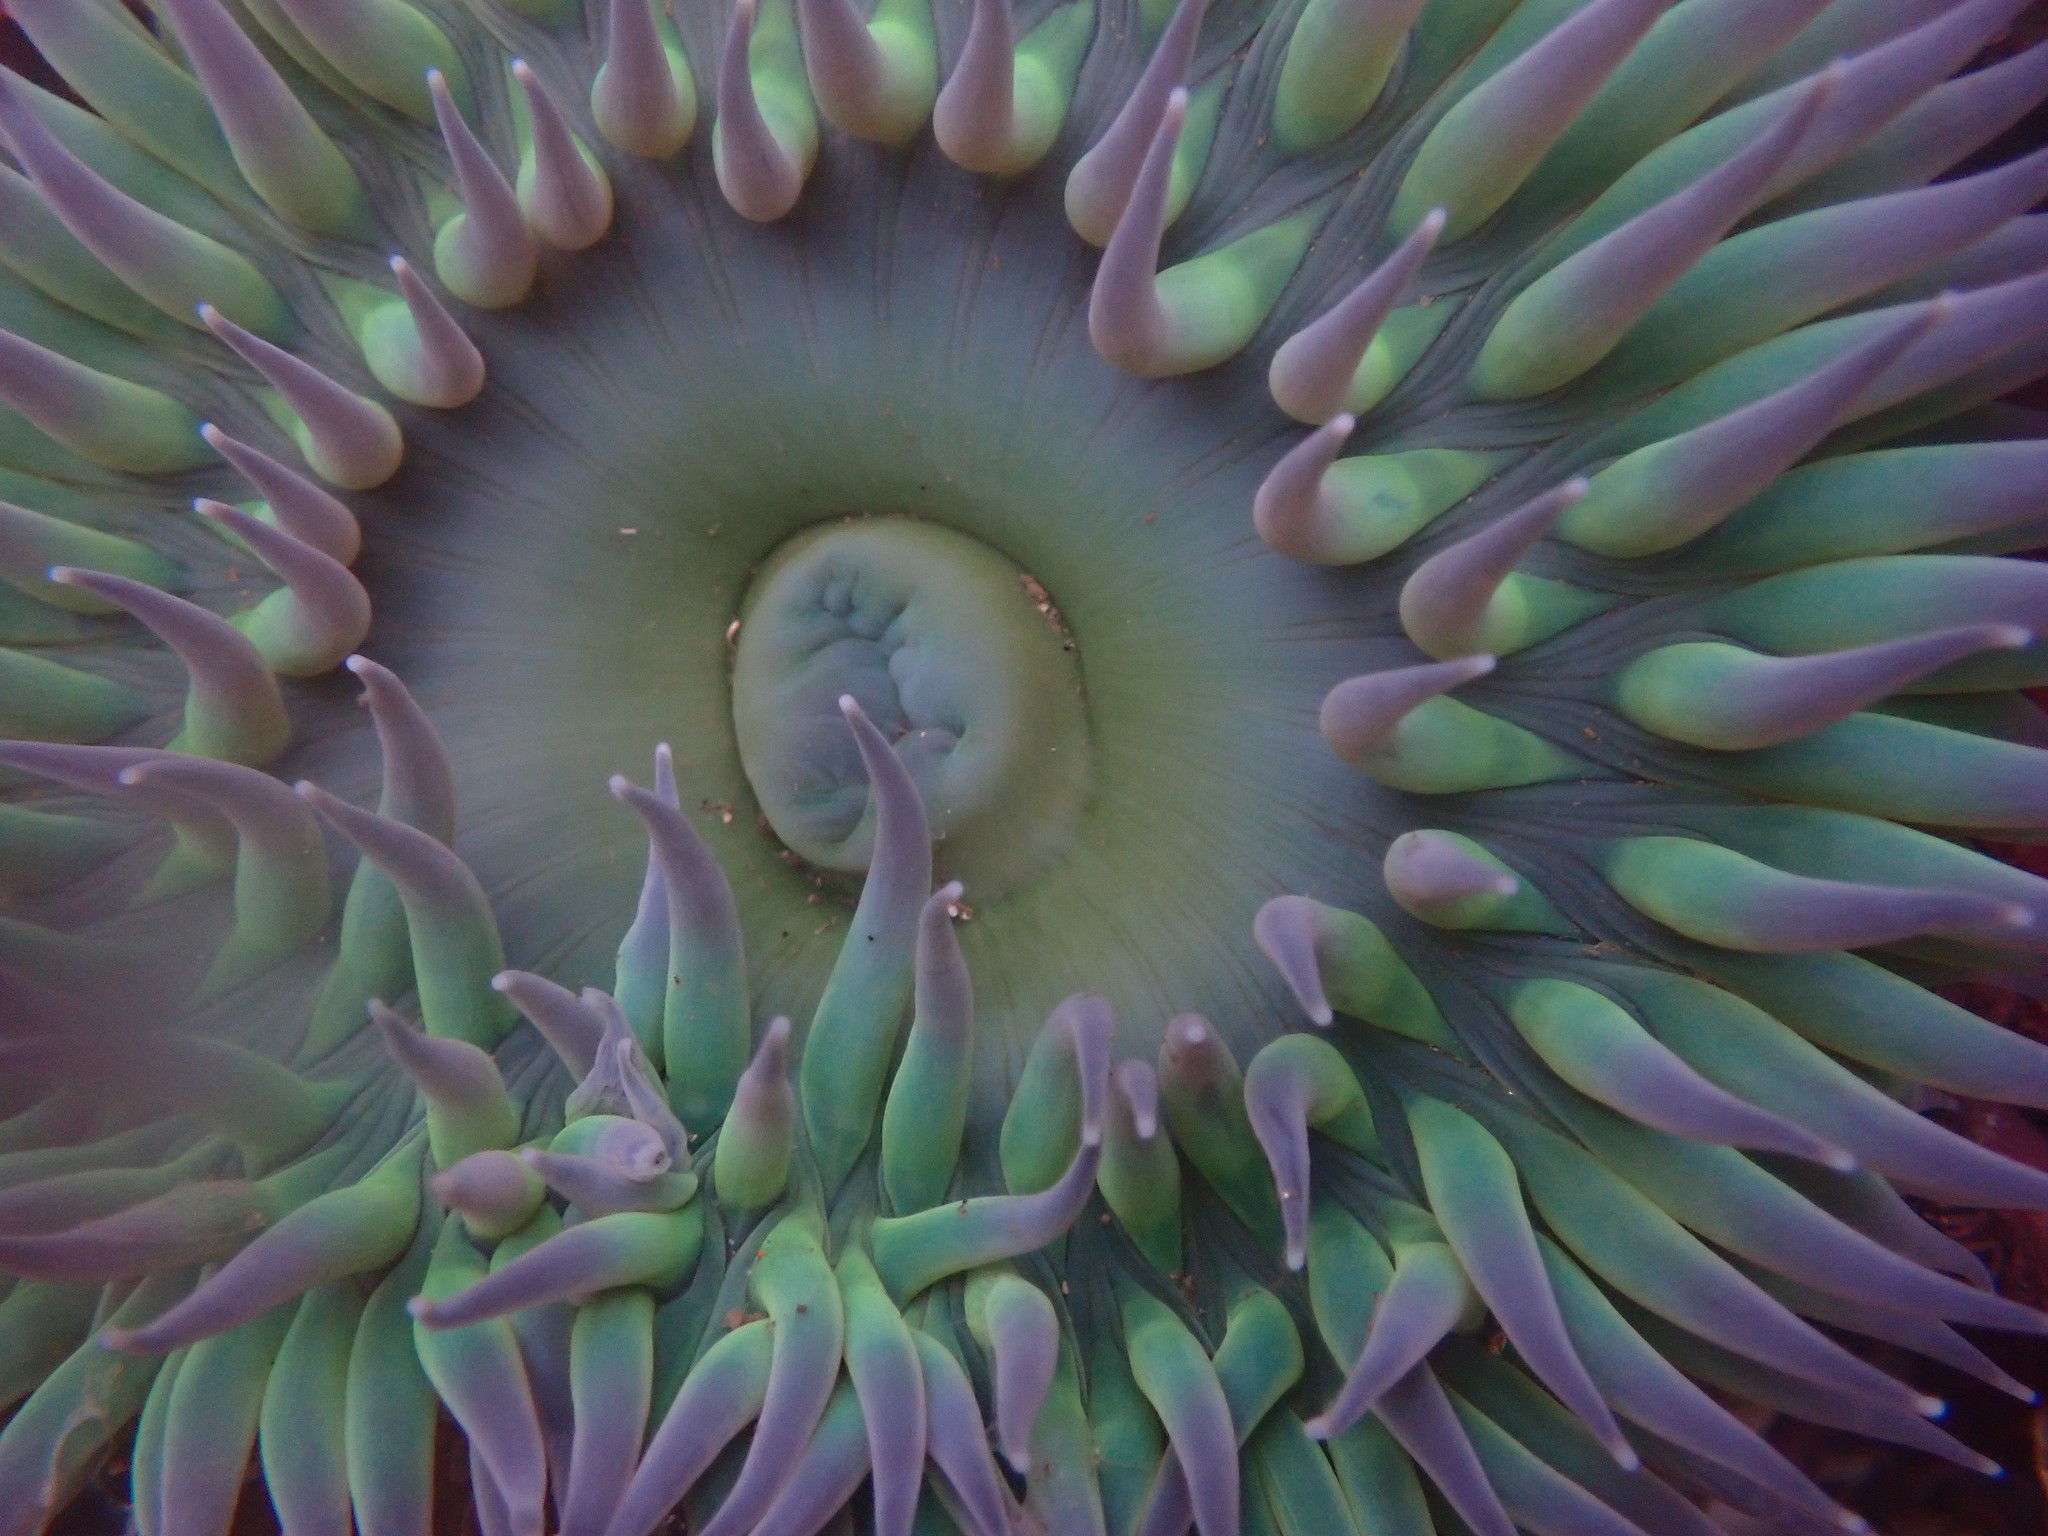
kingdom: Animalia
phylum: Cnidaria
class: Anthozoa
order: Actiniaria
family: Actiniidae
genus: Anthopleura
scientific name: Anthopleura xanthogrammica
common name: Giant green anemone
